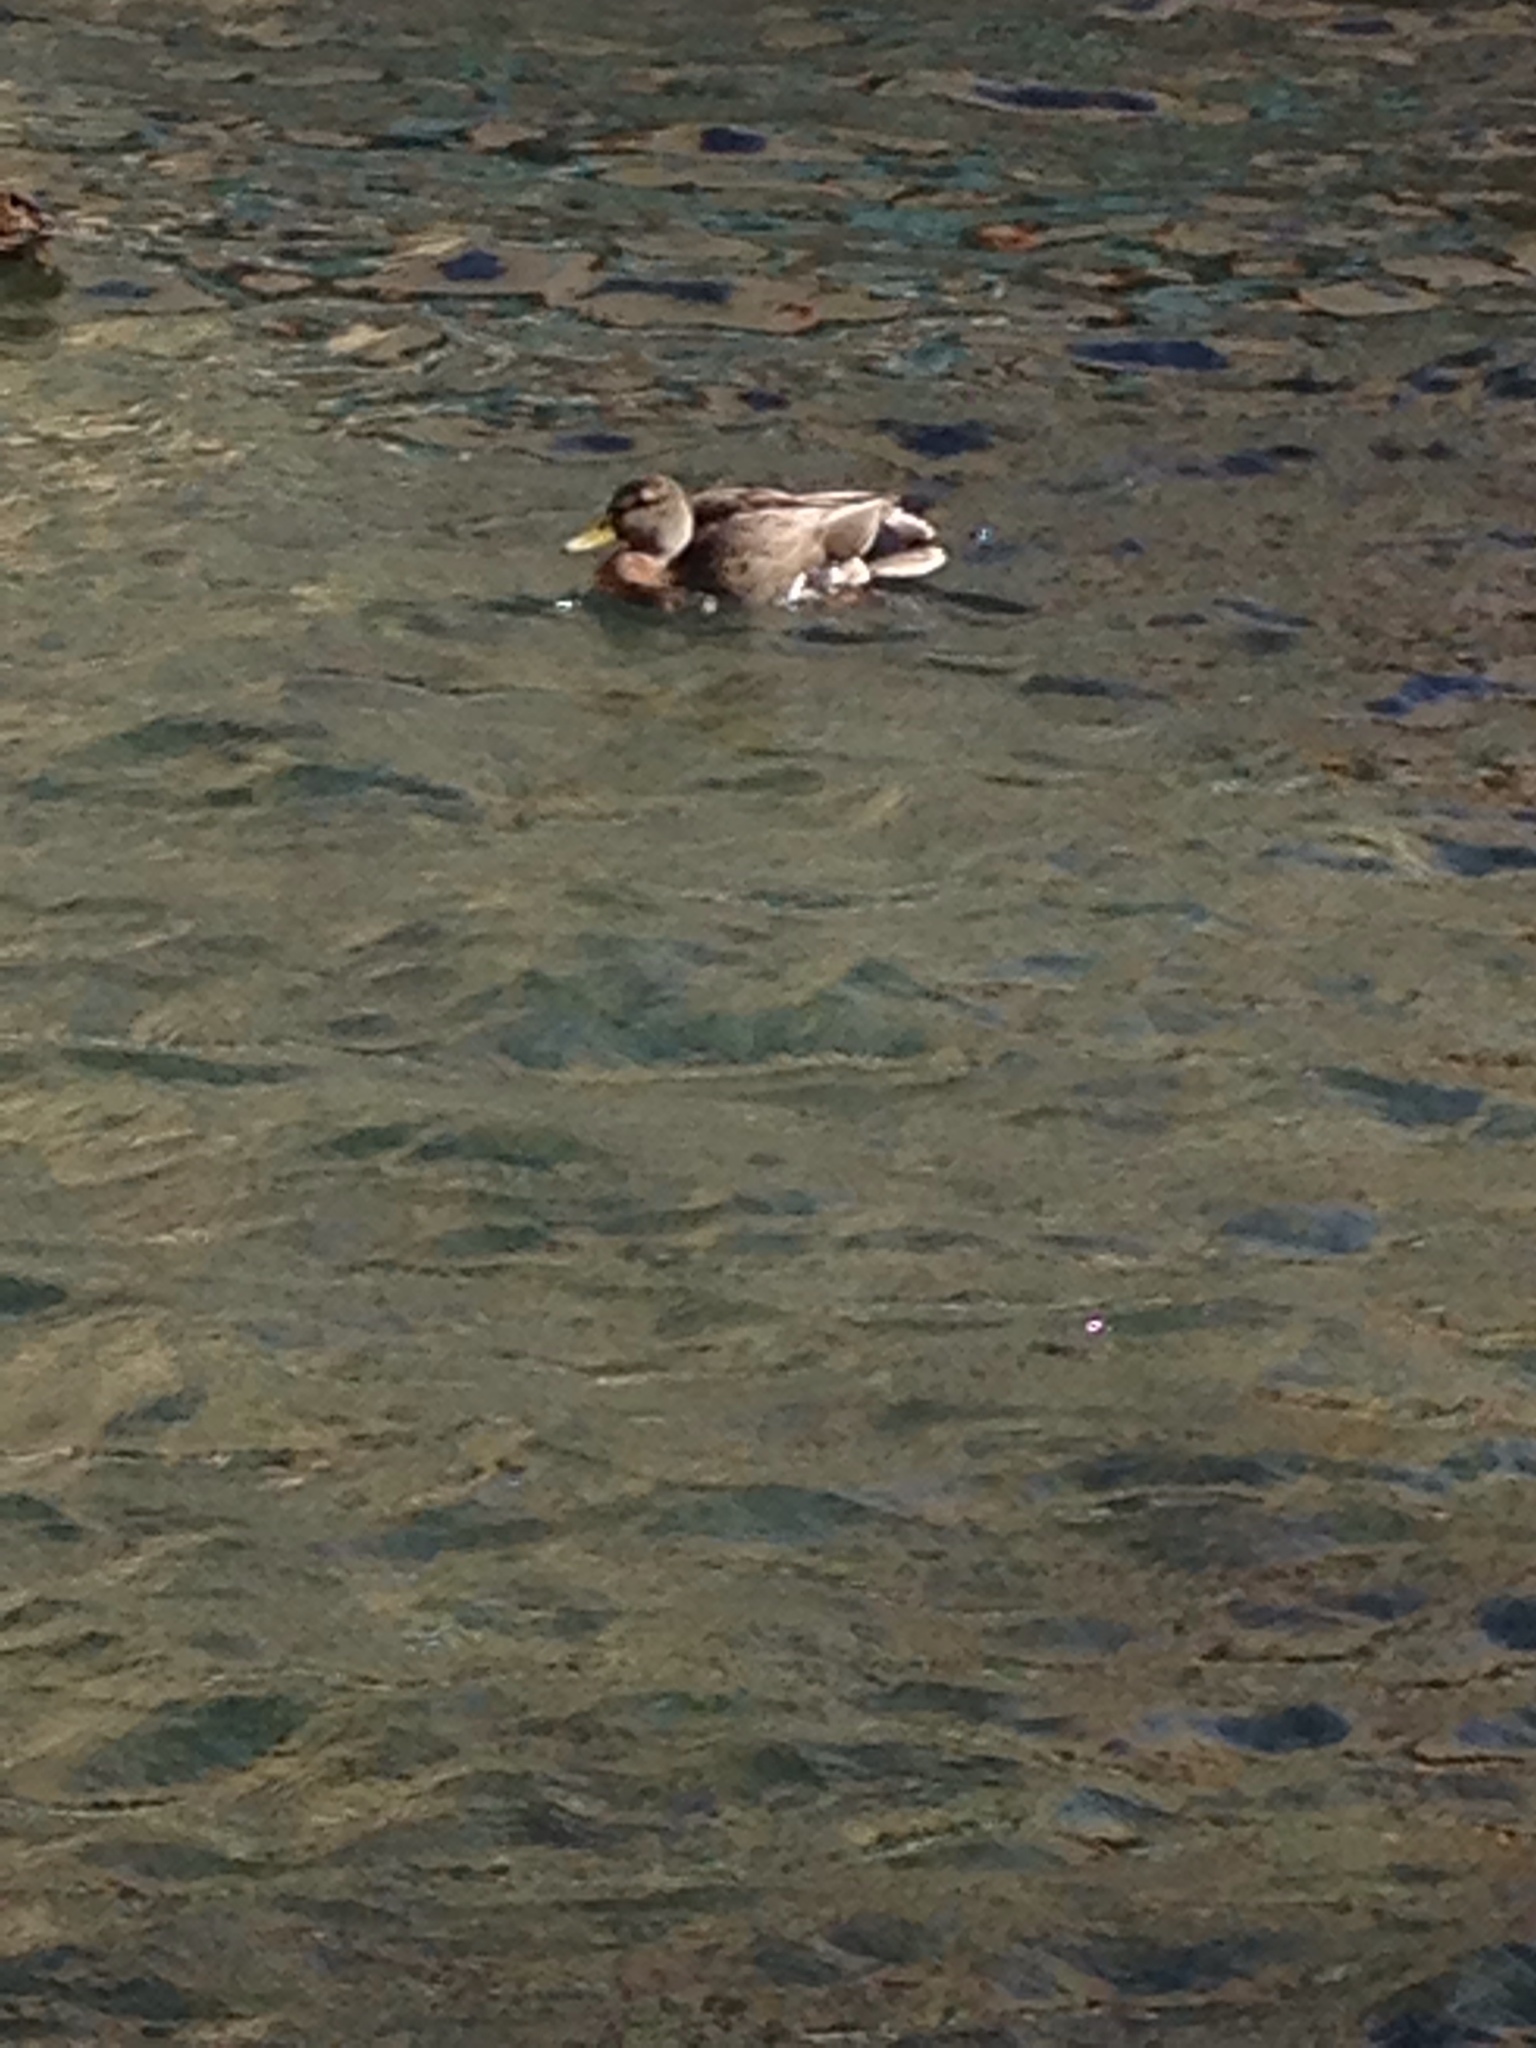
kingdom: Animalia
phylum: Chordata
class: Aves
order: Anseriformes
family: Anatidae
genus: Anas
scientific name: Anas platyrhynchos
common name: Mallard
